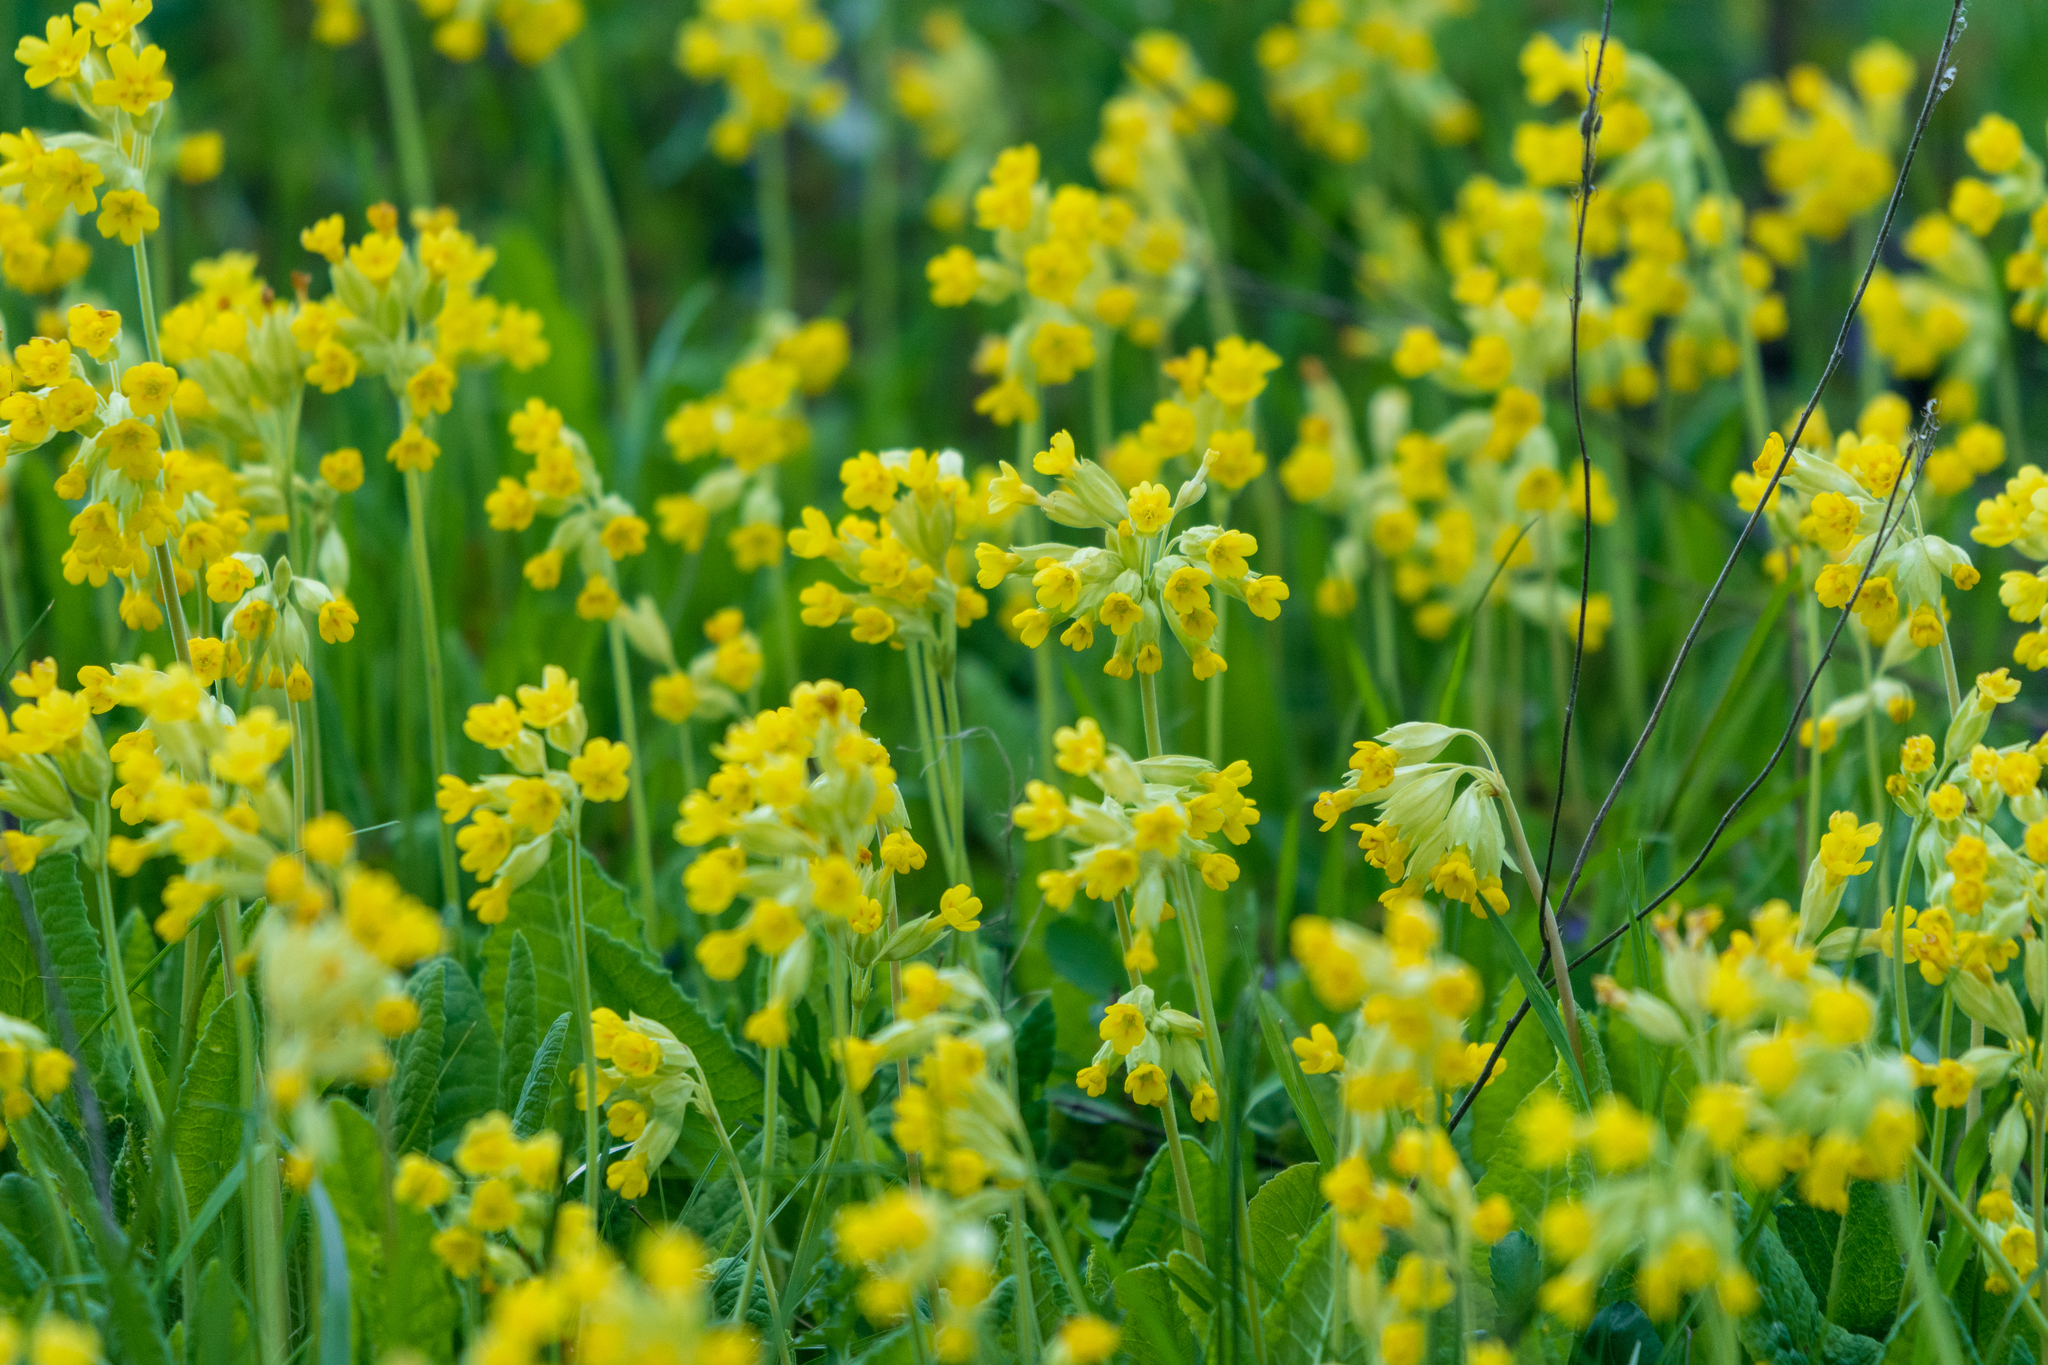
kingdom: Plantae
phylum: Tracheophyta
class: Magnoliopsida
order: Ericales
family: Primulaceae
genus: Primula
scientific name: Primula veris
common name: Cowslip
